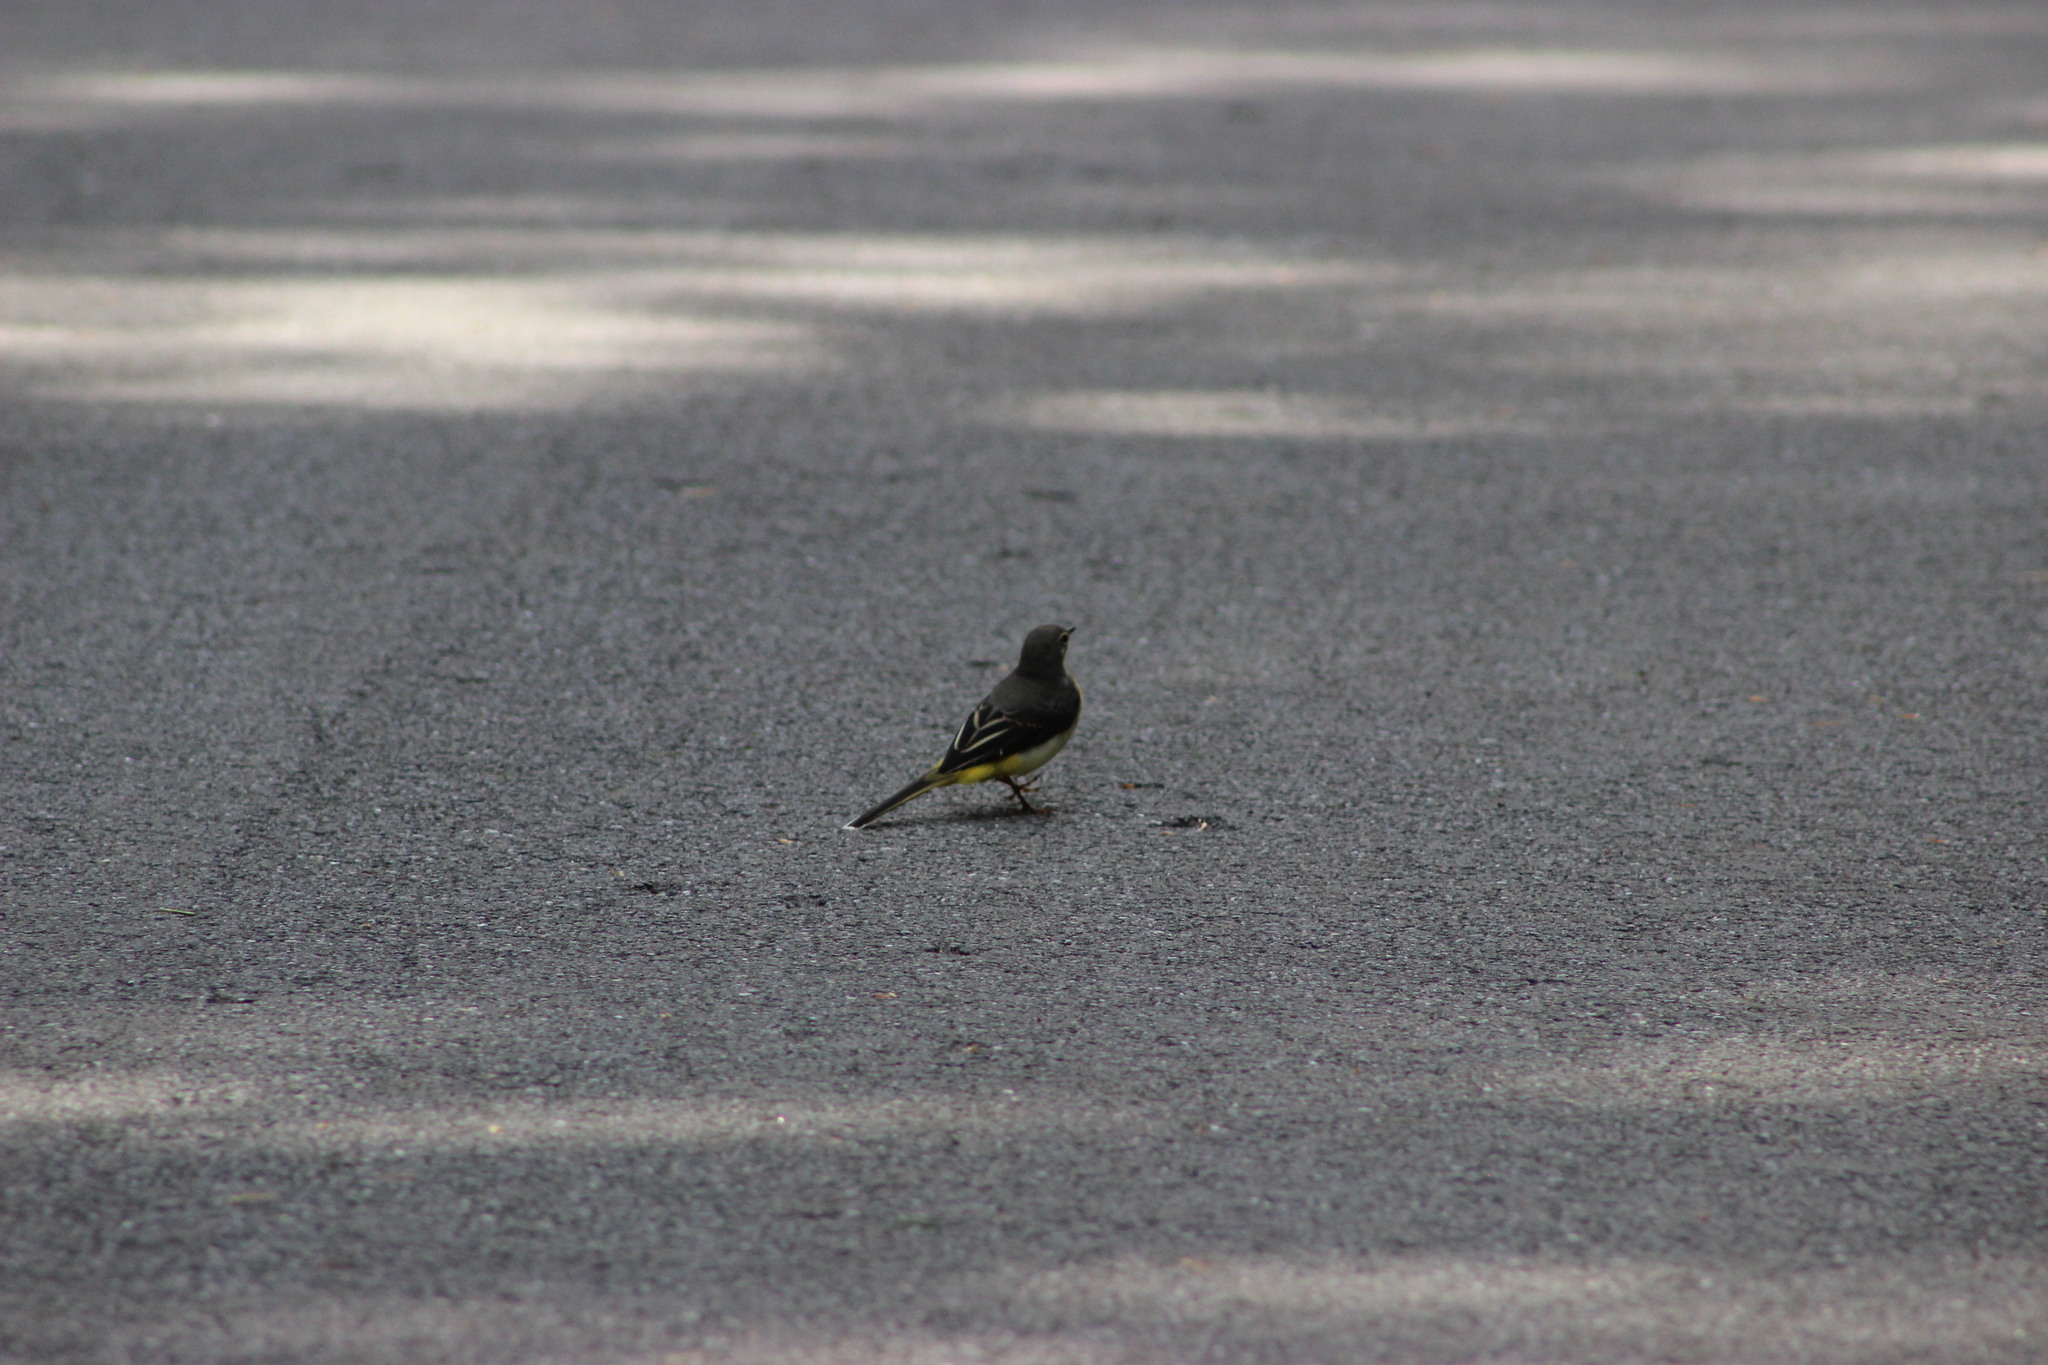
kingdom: Animalia
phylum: Chordata
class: Aves
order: Passeriformes
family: Motacillidae
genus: Motacilla
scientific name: Motacilla cinerea
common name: Grey wagtail
